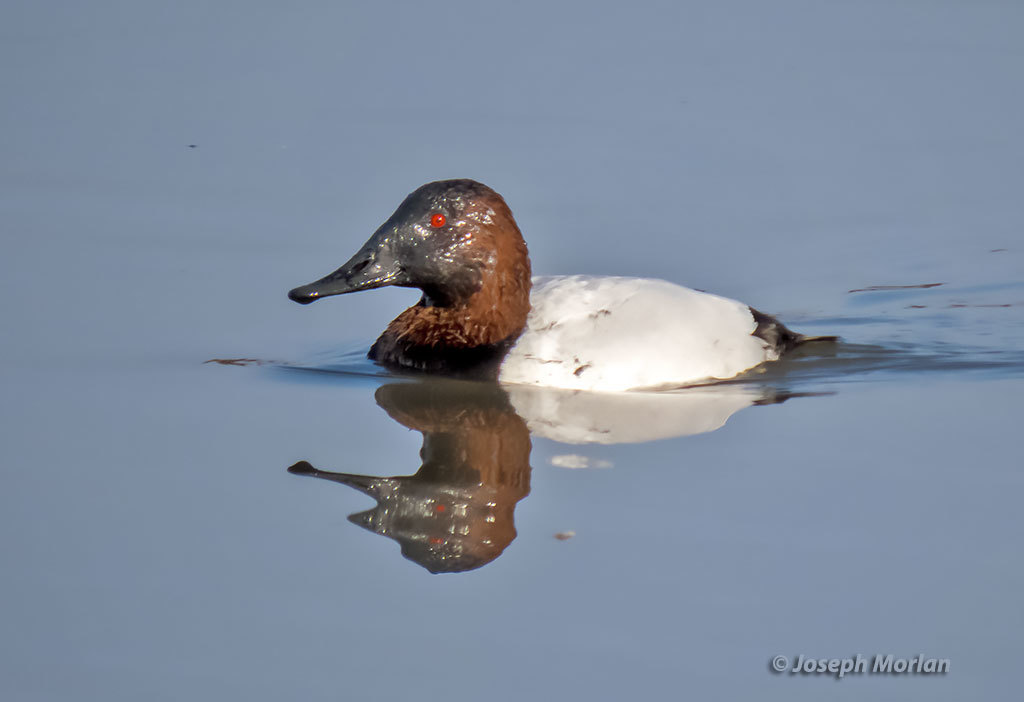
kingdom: Animalia
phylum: Chordata
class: Aves
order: Anseriformes
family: Anatidae
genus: Aythya
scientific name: Aythya valisineria
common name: Canvasback
